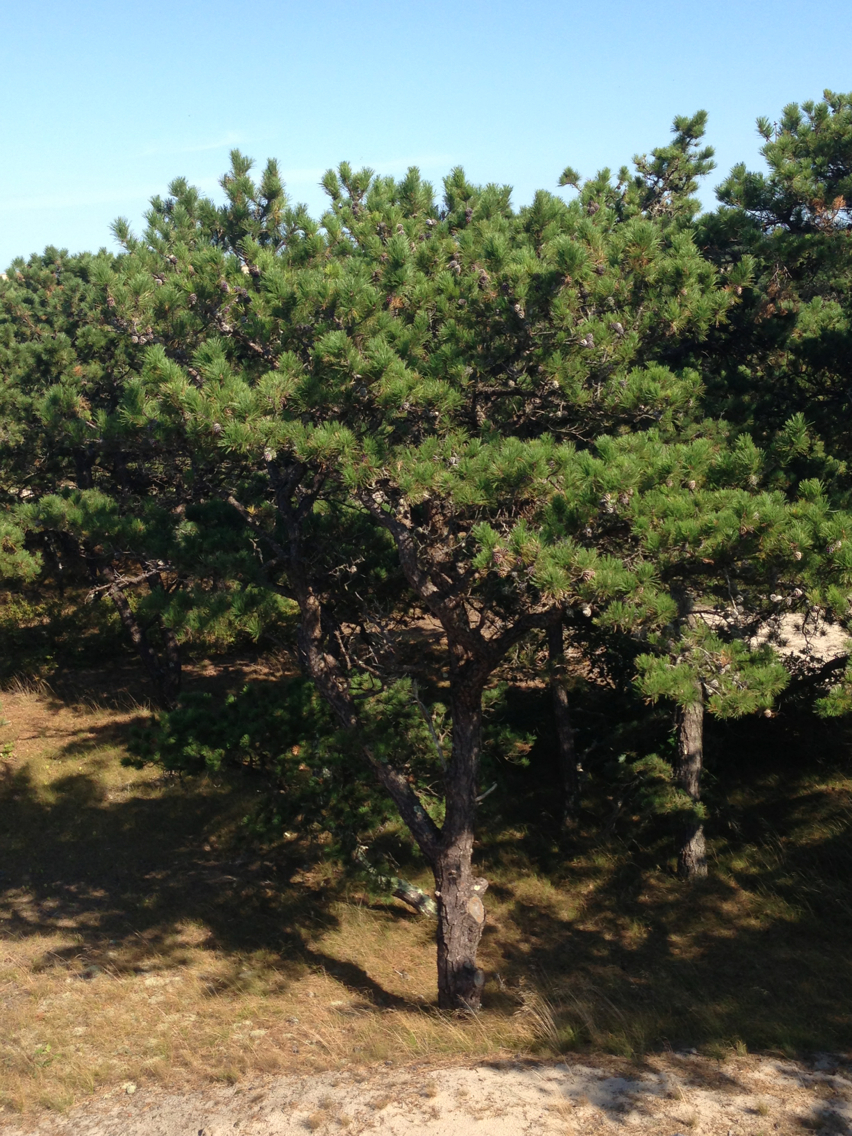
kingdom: Plantae
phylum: Tracheophyta
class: Pinopsida
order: Pinales
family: Pinaceae
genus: Pinus
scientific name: Pinus rigida
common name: Pitch pine
